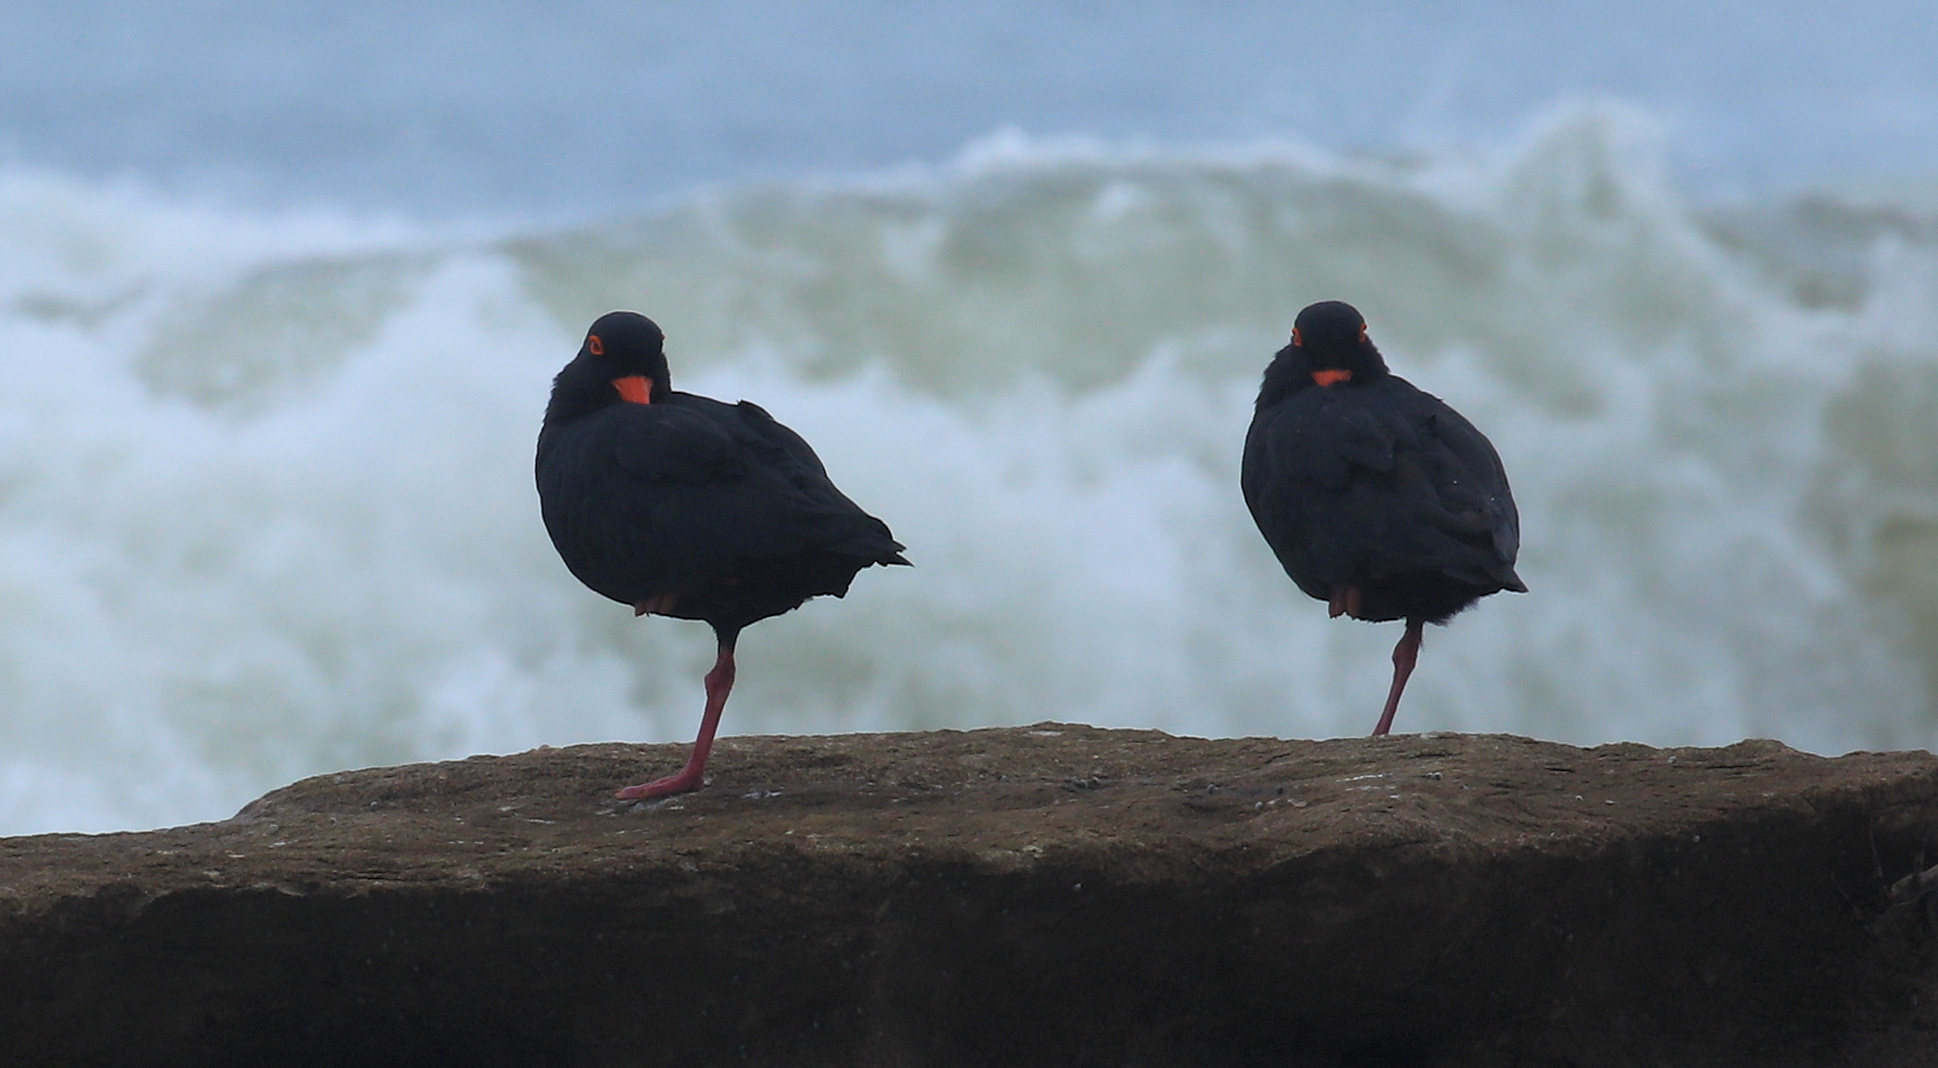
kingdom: Animalia
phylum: Chordata
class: Aves
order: Charadriiformes
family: Haematopodidae
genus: Haematopus
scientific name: Haematopus moquini
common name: African oystercatcher
